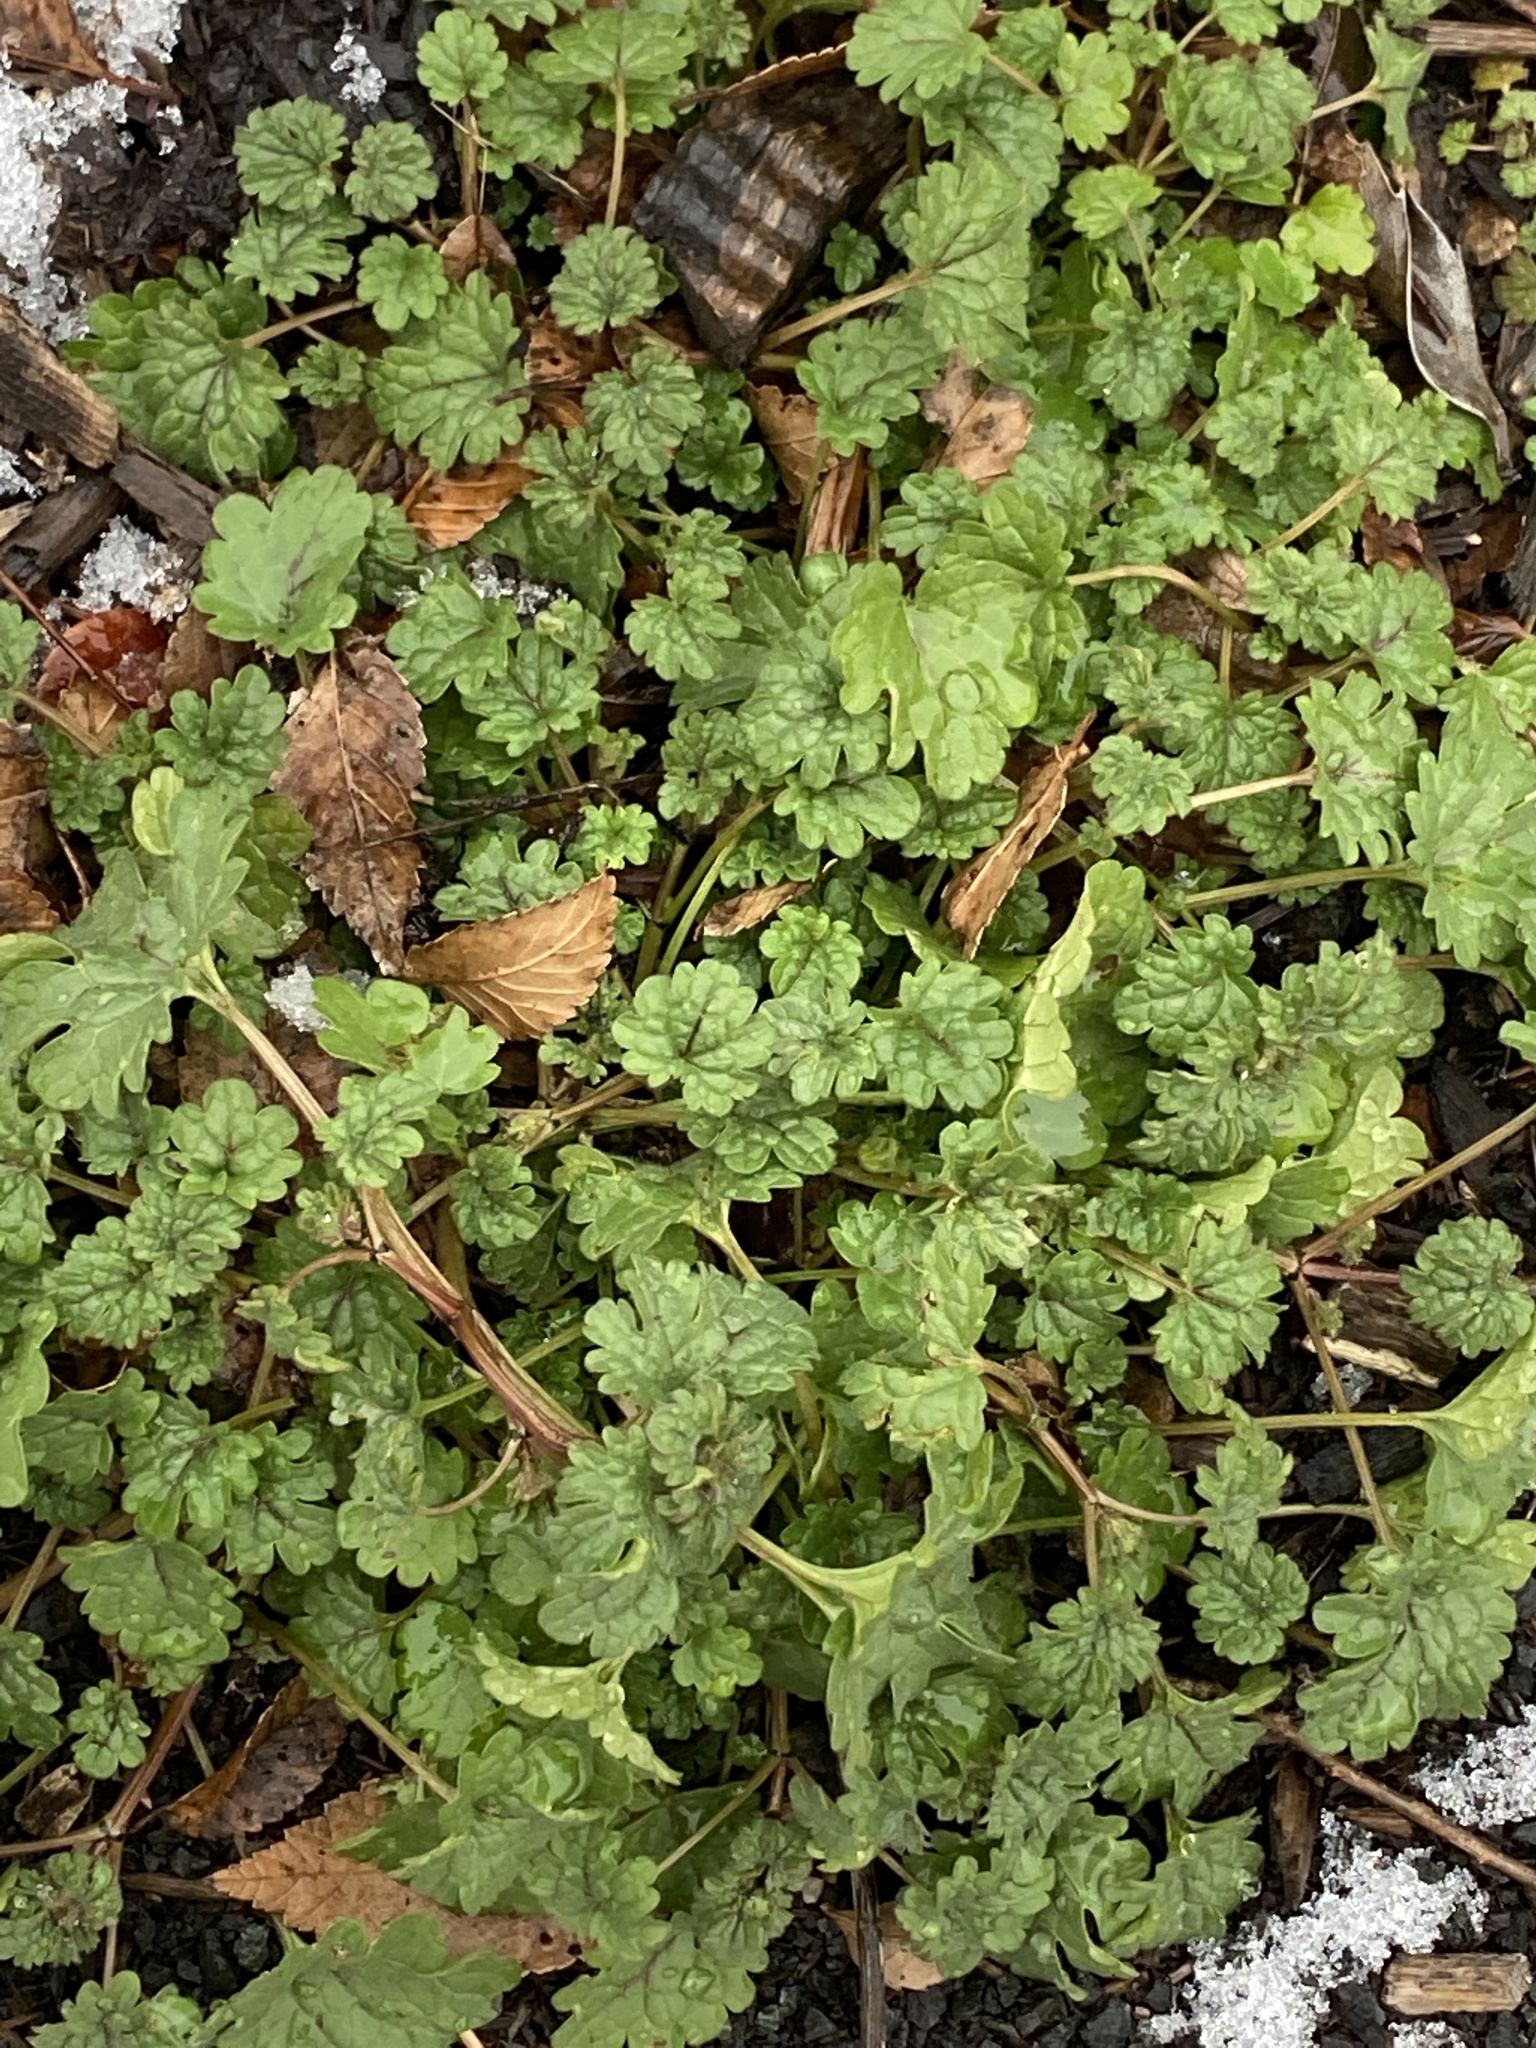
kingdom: Plantae
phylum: Tracheophyta
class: Magnoliopsida
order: Lamiales
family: Lamiaceae
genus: Lamium
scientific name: Lamium amplexicaule
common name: Henbit dead-nettle
